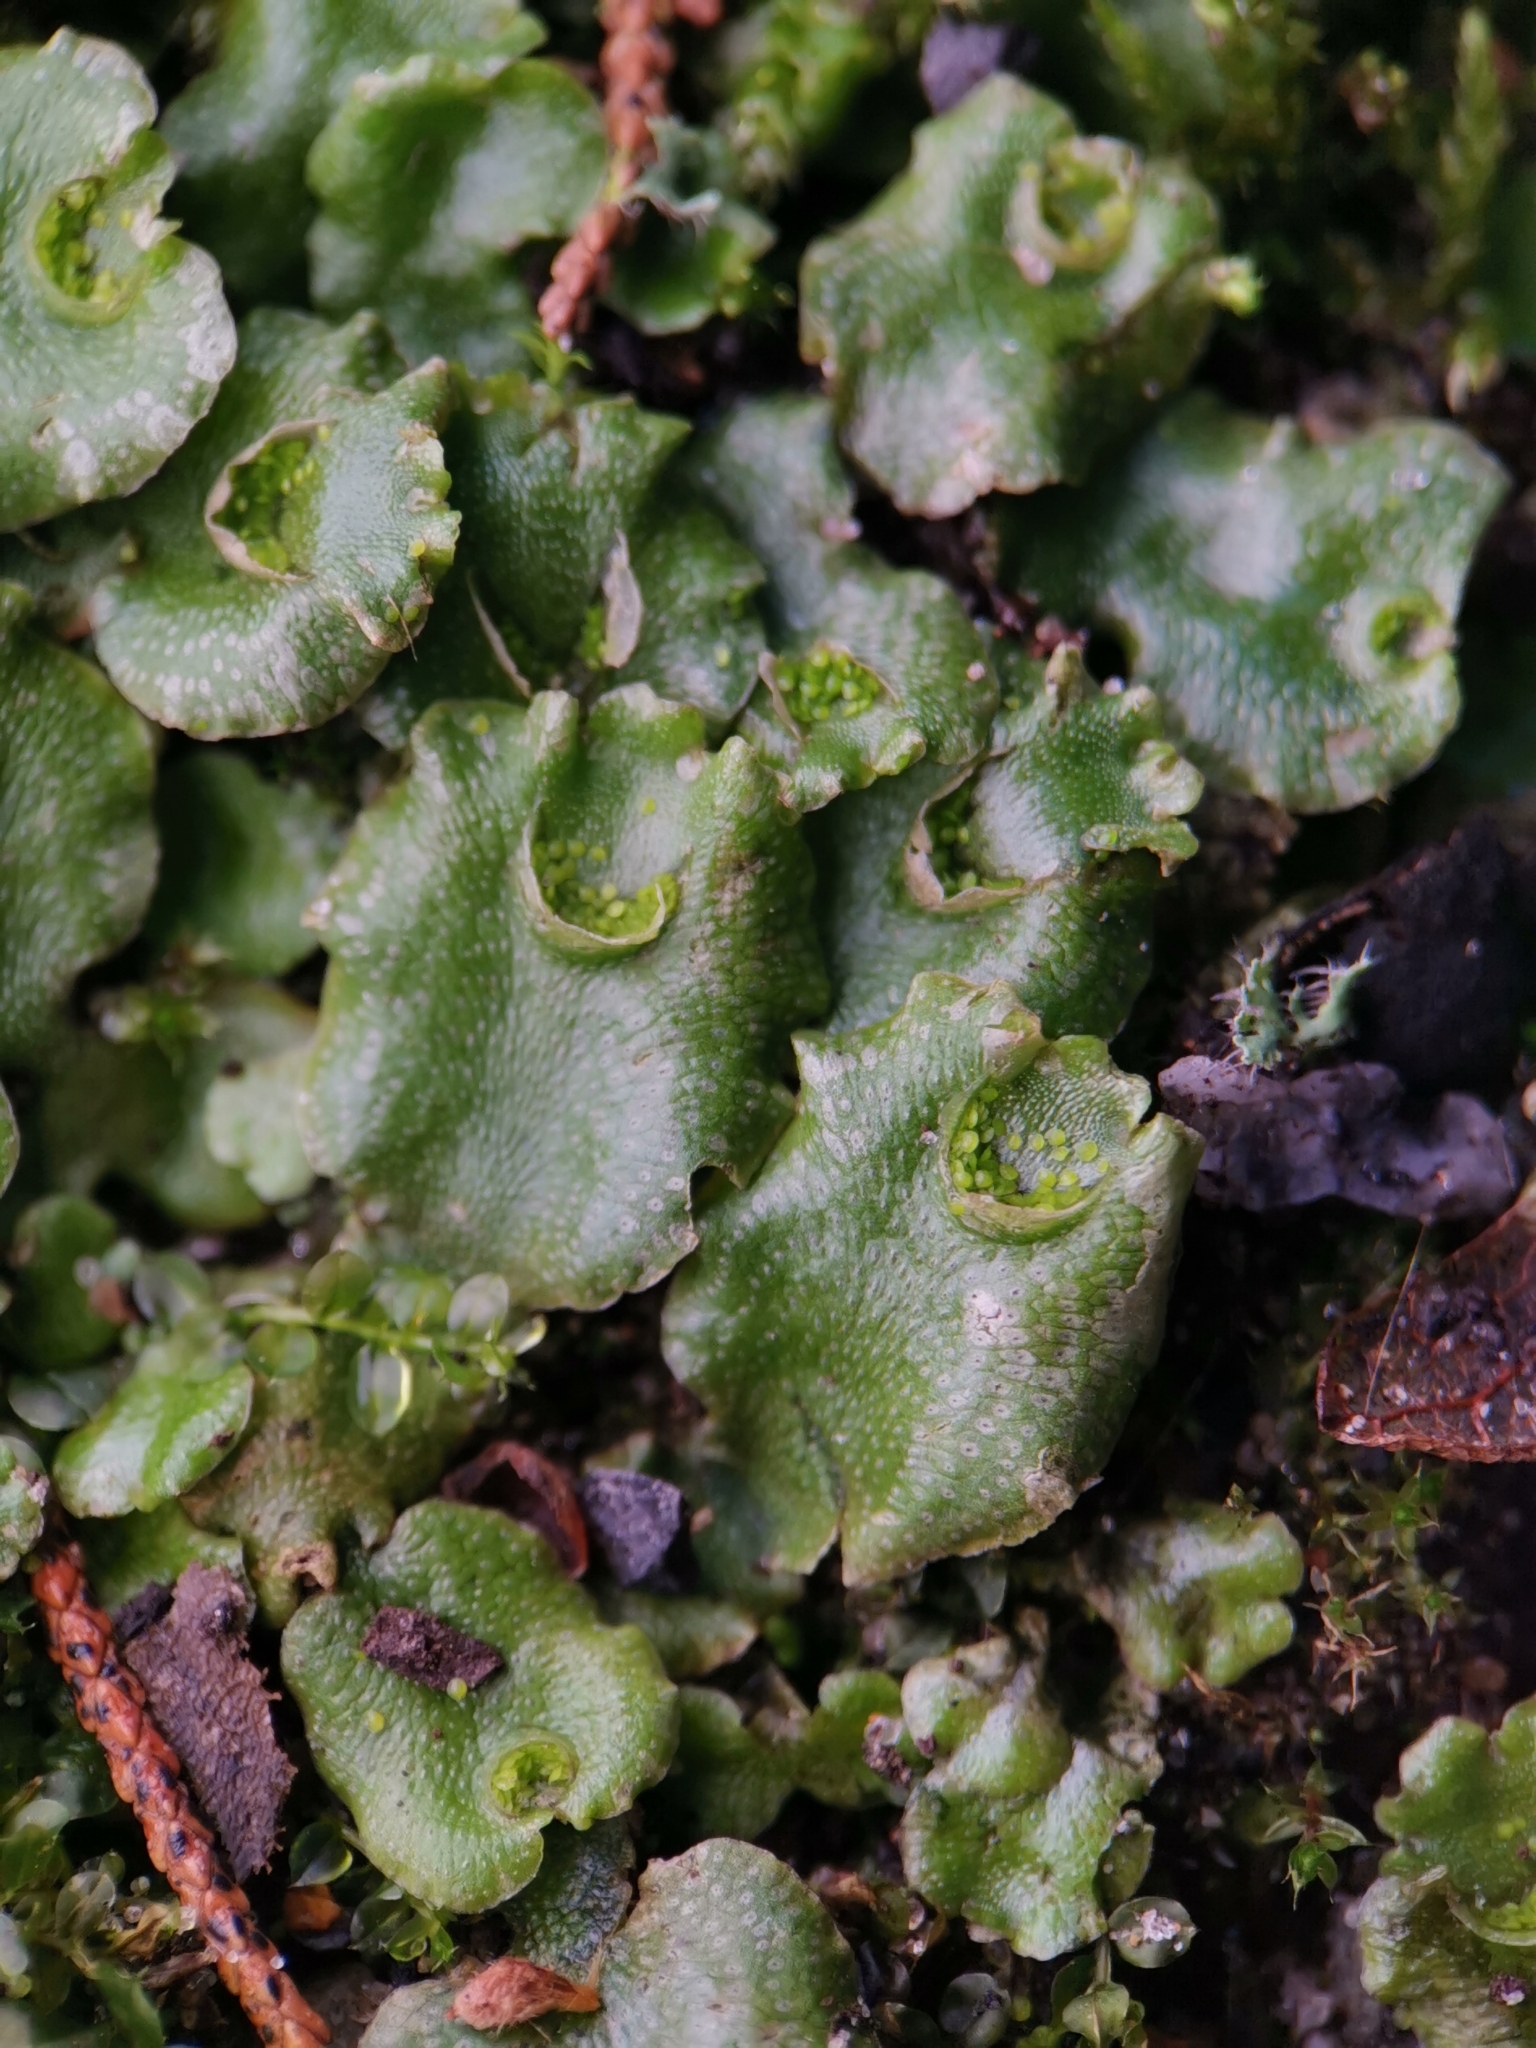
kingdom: Plantae
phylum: Marchantiophyta
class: Marchantiopsida
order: Lunulariales
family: Lunulariaceae
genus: Lunularia
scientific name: Lunularia cruciata
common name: Crescent-cup liverwort
